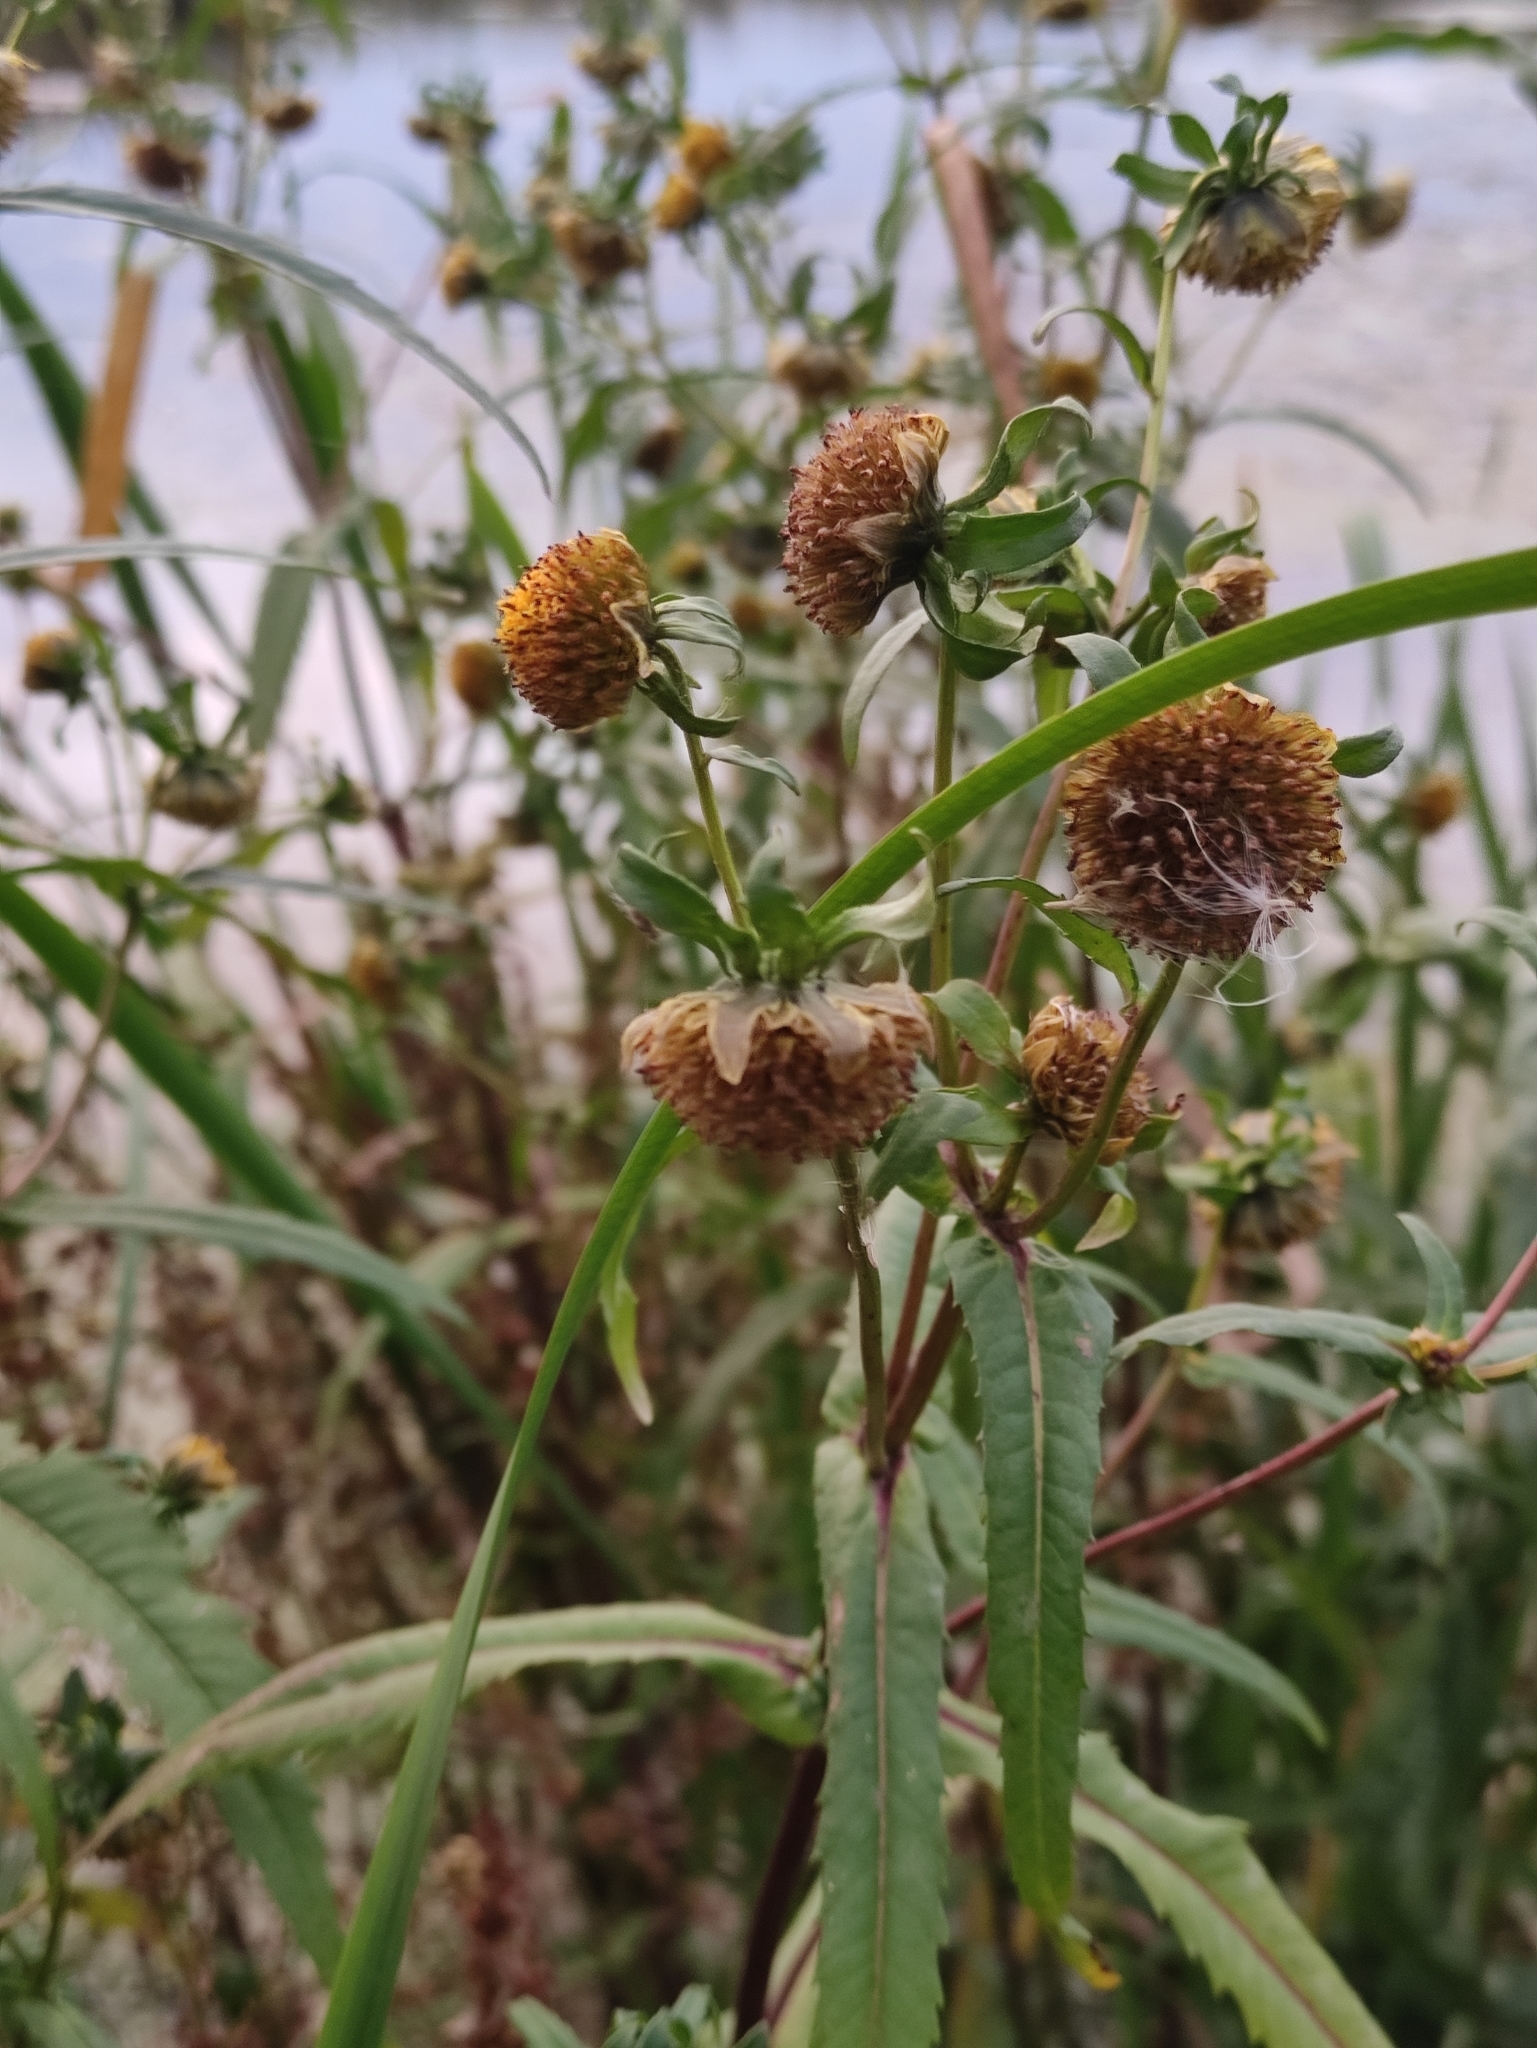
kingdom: Plantae
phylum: Tracheophyta
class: Magnoliopsida
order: Asterales
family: Asteraceae
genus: Bidens
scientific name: Bidens cernua
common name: Nodding bur-marigold
